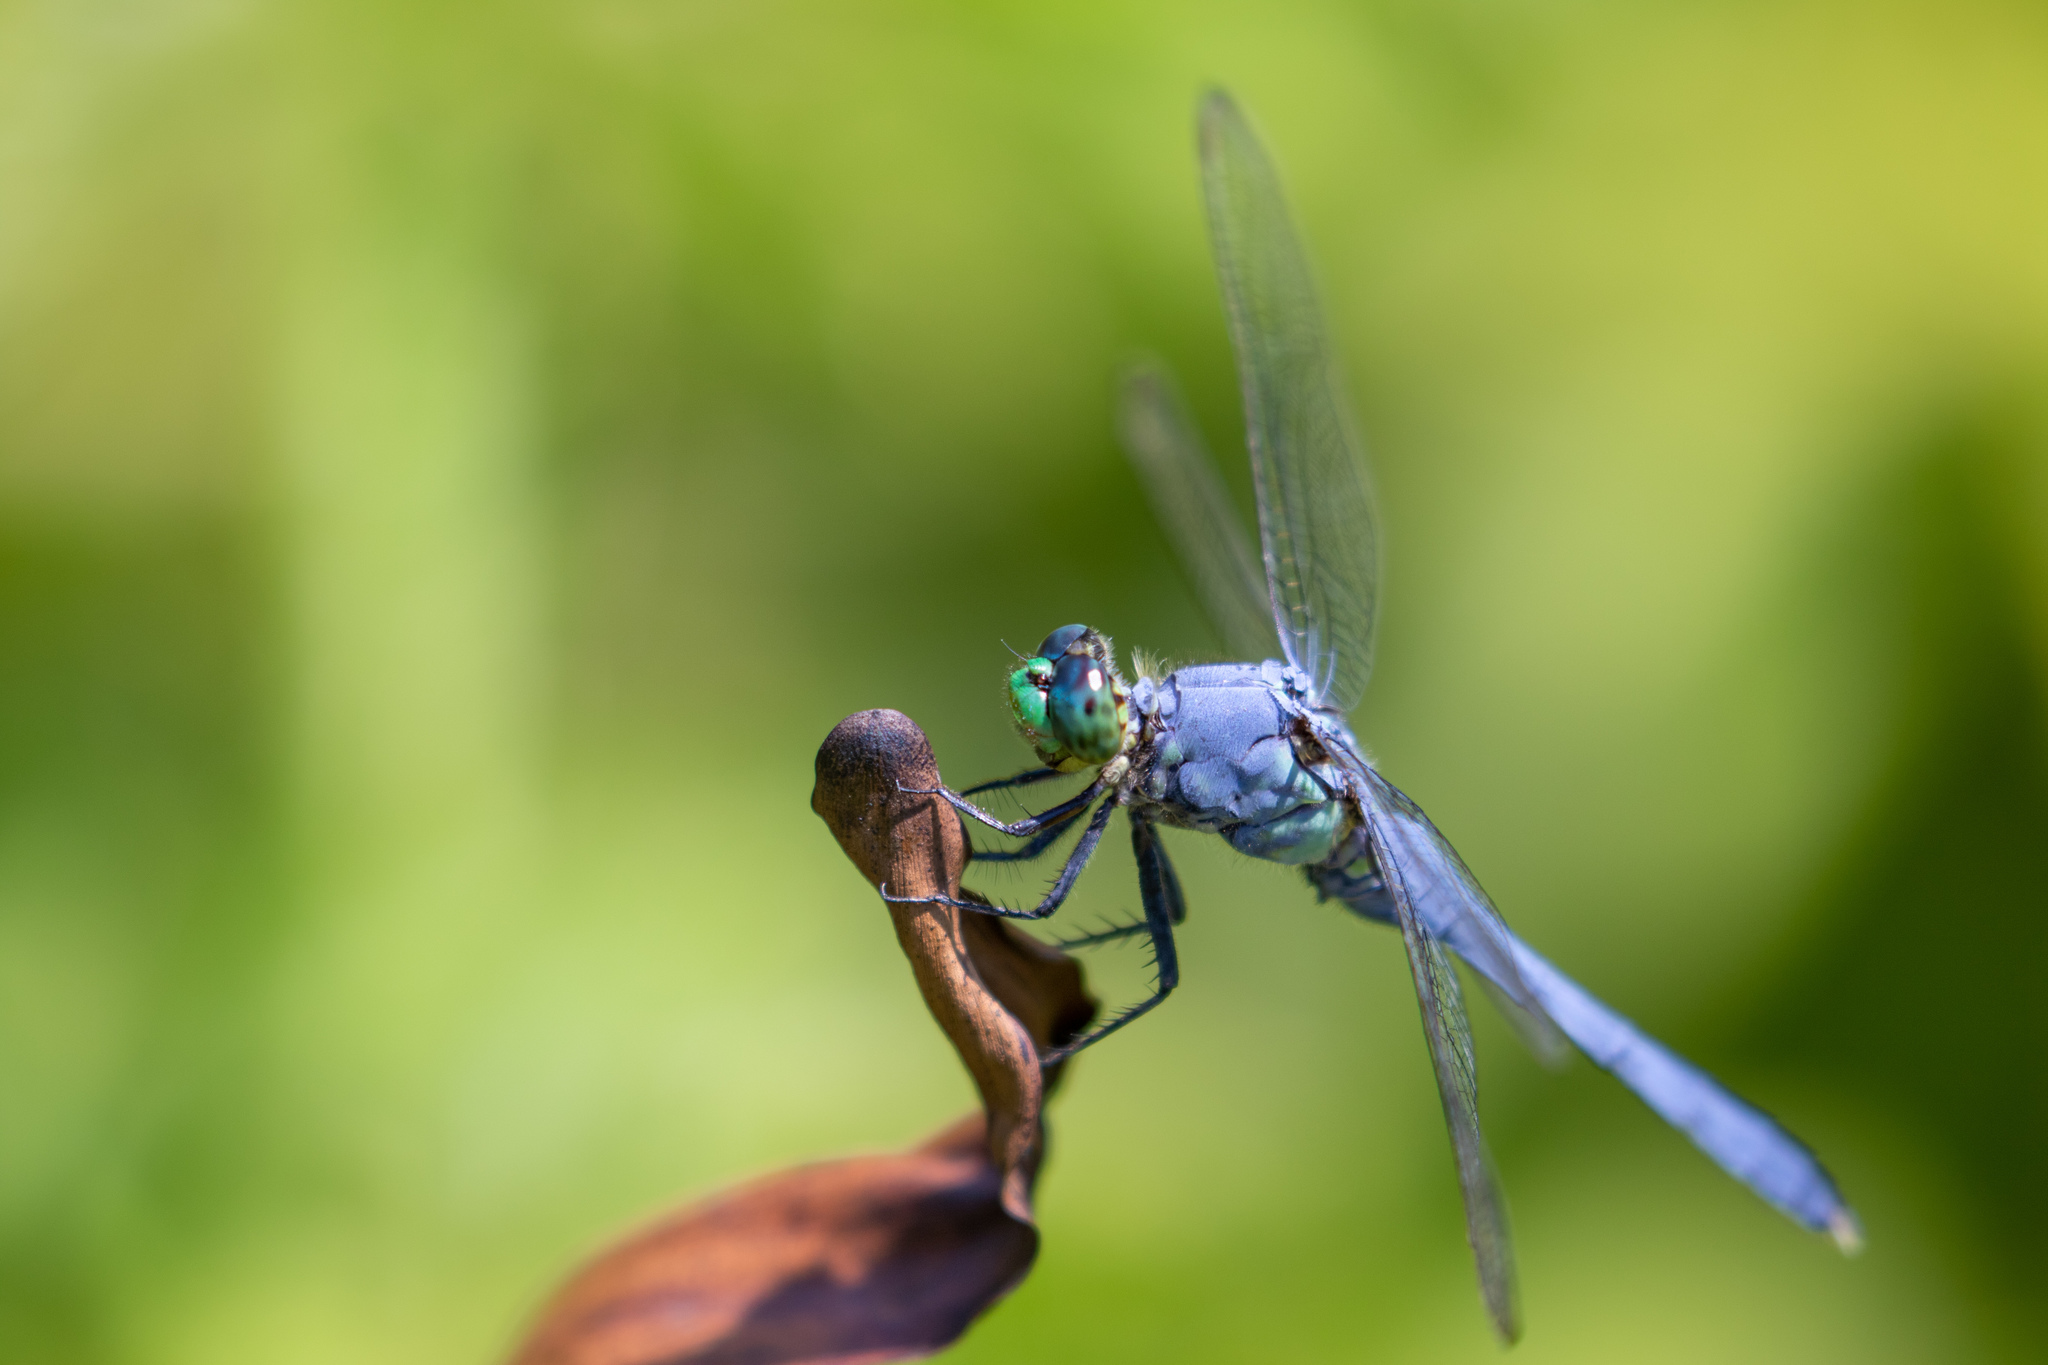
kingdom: Animalia
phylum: Arthropoda
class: Insecta
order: Odonata
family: Libellulidae
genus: Erythemis
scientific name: Erythemis simplicicollis
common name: Eastern pondhawk
